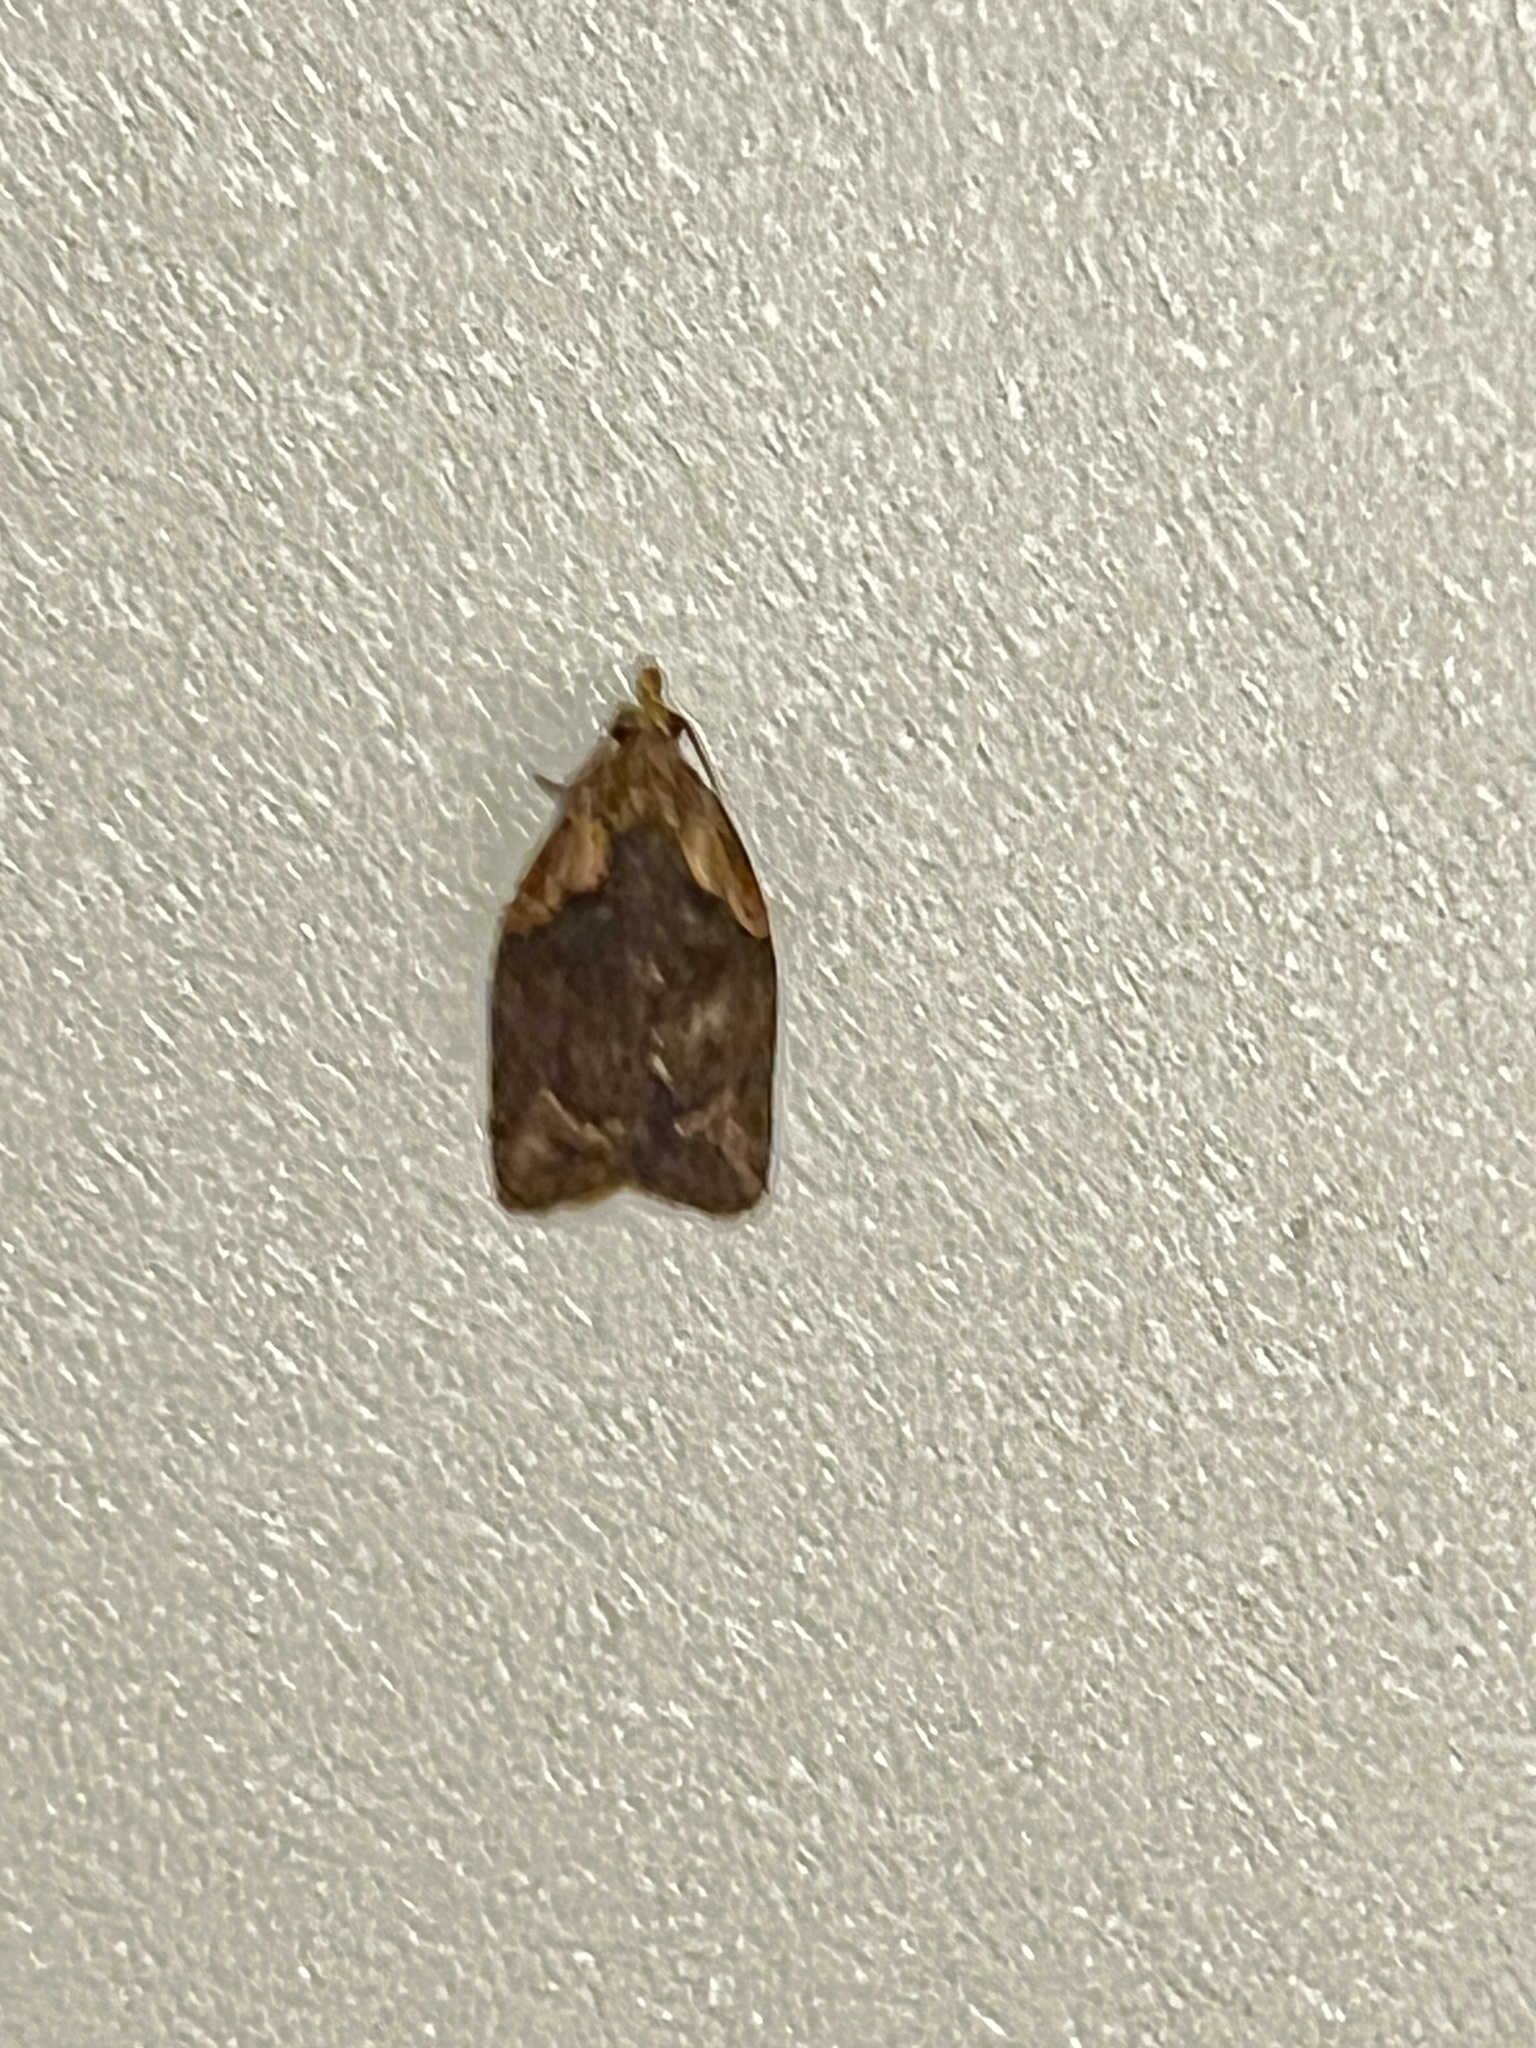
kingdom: Animalia
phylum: Arthropoda
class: Insecta
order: Lepidoptera
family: Tortricidae
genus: Capua
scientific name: Capua intractana
